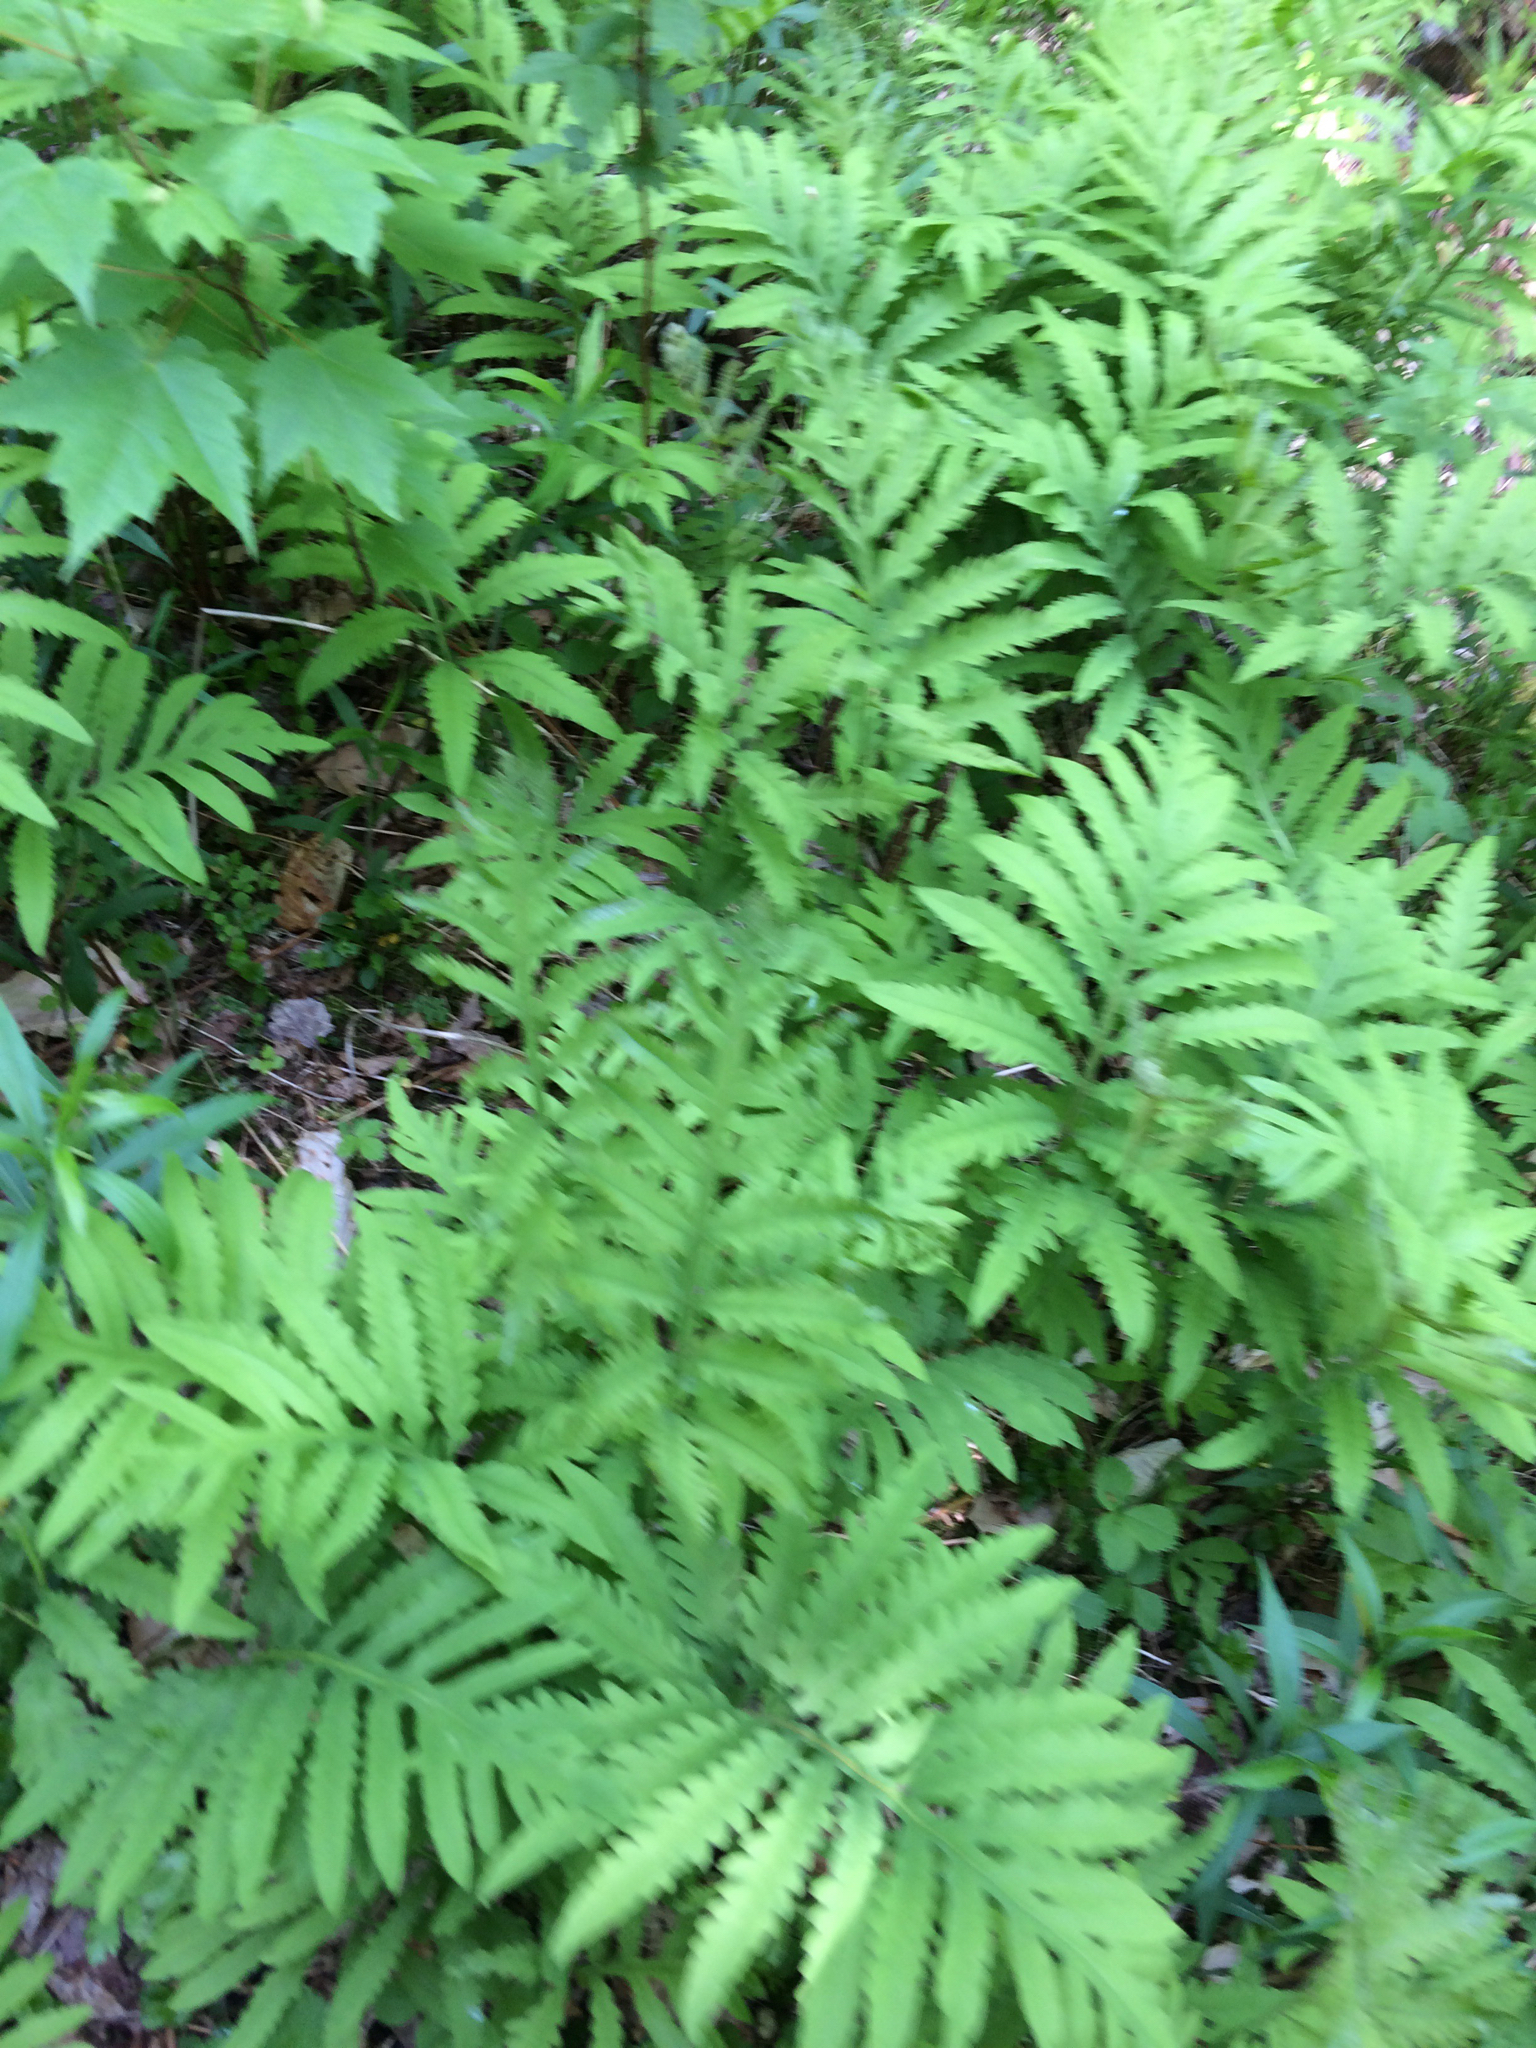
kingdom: Plantae
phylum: Tracheophyta
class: Polypodiopsida
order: Polypodiales
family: Onocleaceae
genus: Onoclea
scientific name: Onoclea sensibilis
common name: Sensitive fern
